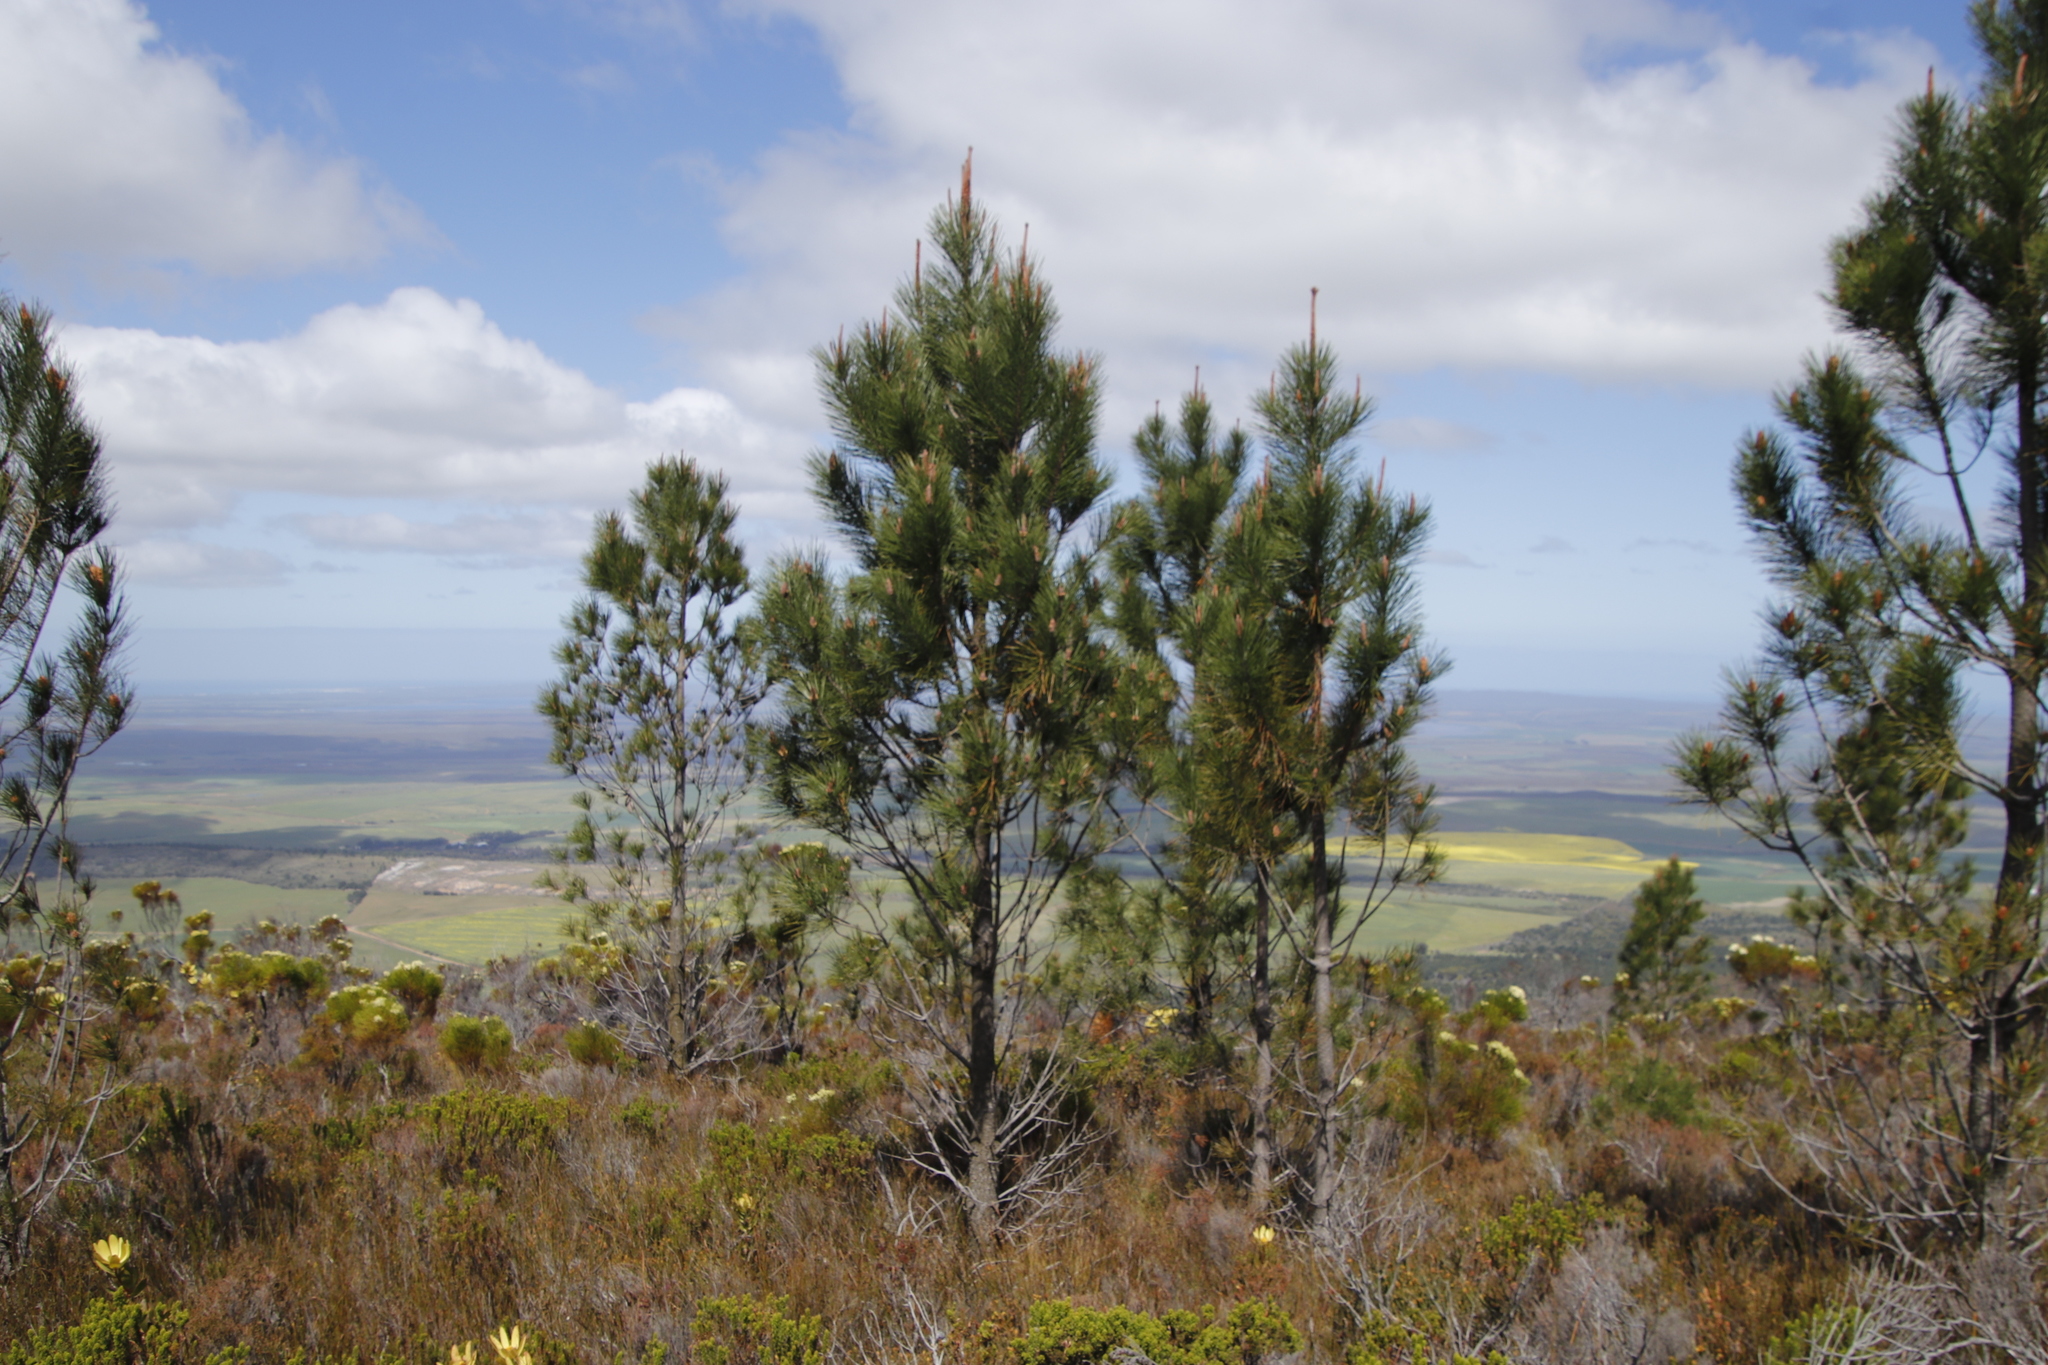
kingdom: Plantae
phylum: Tracheophyta
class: Pinopsida
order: Pinales
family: Pinaceae
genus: Pinus
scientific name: Pinus pinaster
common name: Maritime pine
